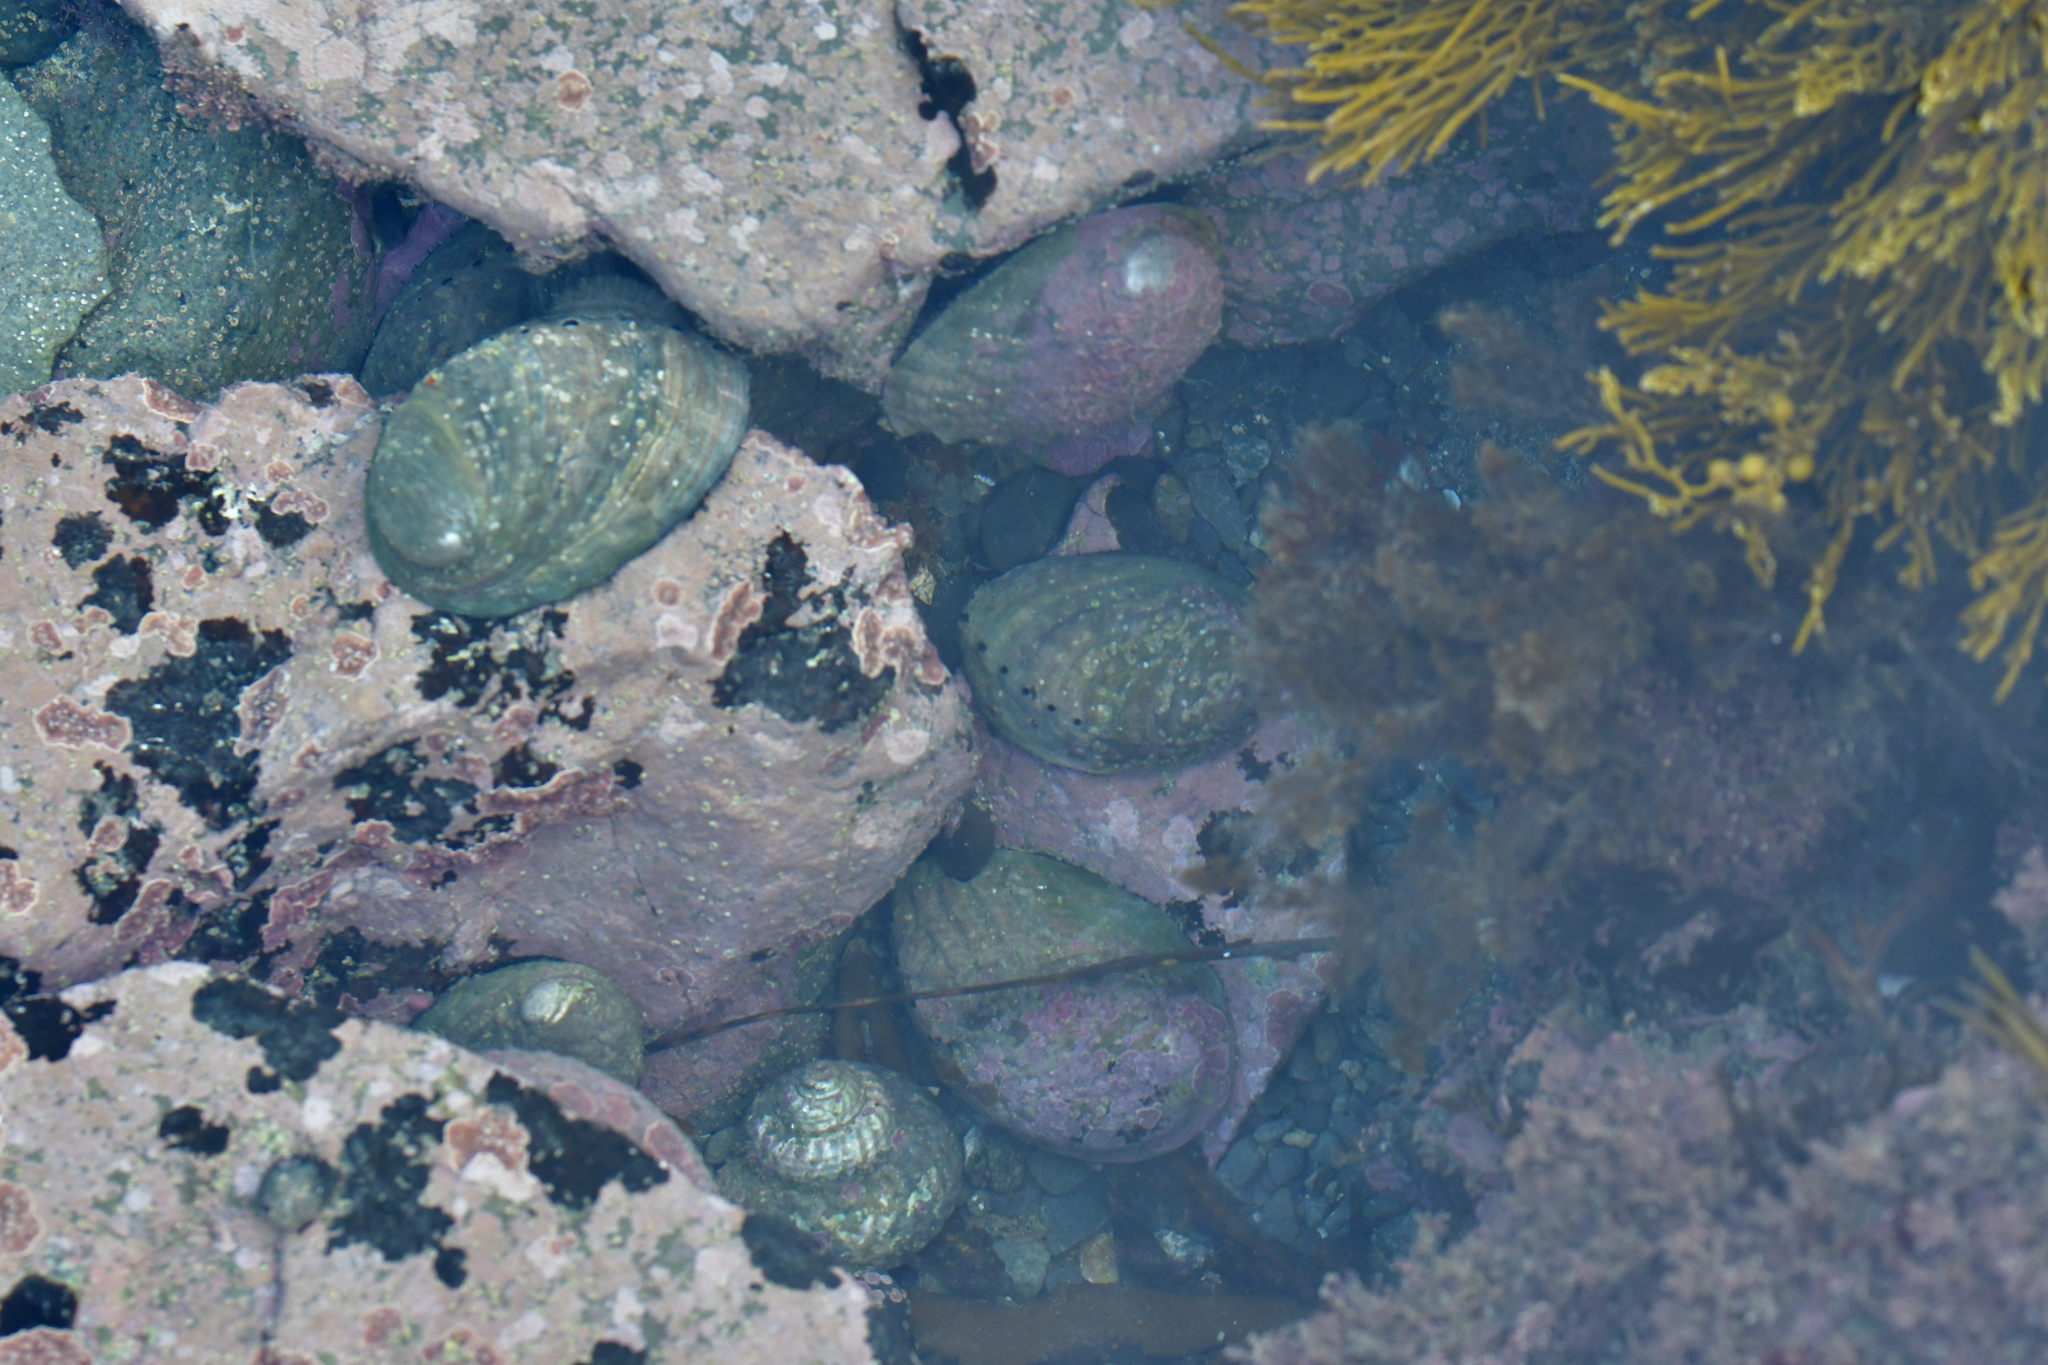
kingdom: Animalia
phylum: Mollusca
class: Gastropoda
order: Lepetellida
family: Haliotidae
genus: Haliotis
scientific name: Haliotis iris
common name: Abalone
